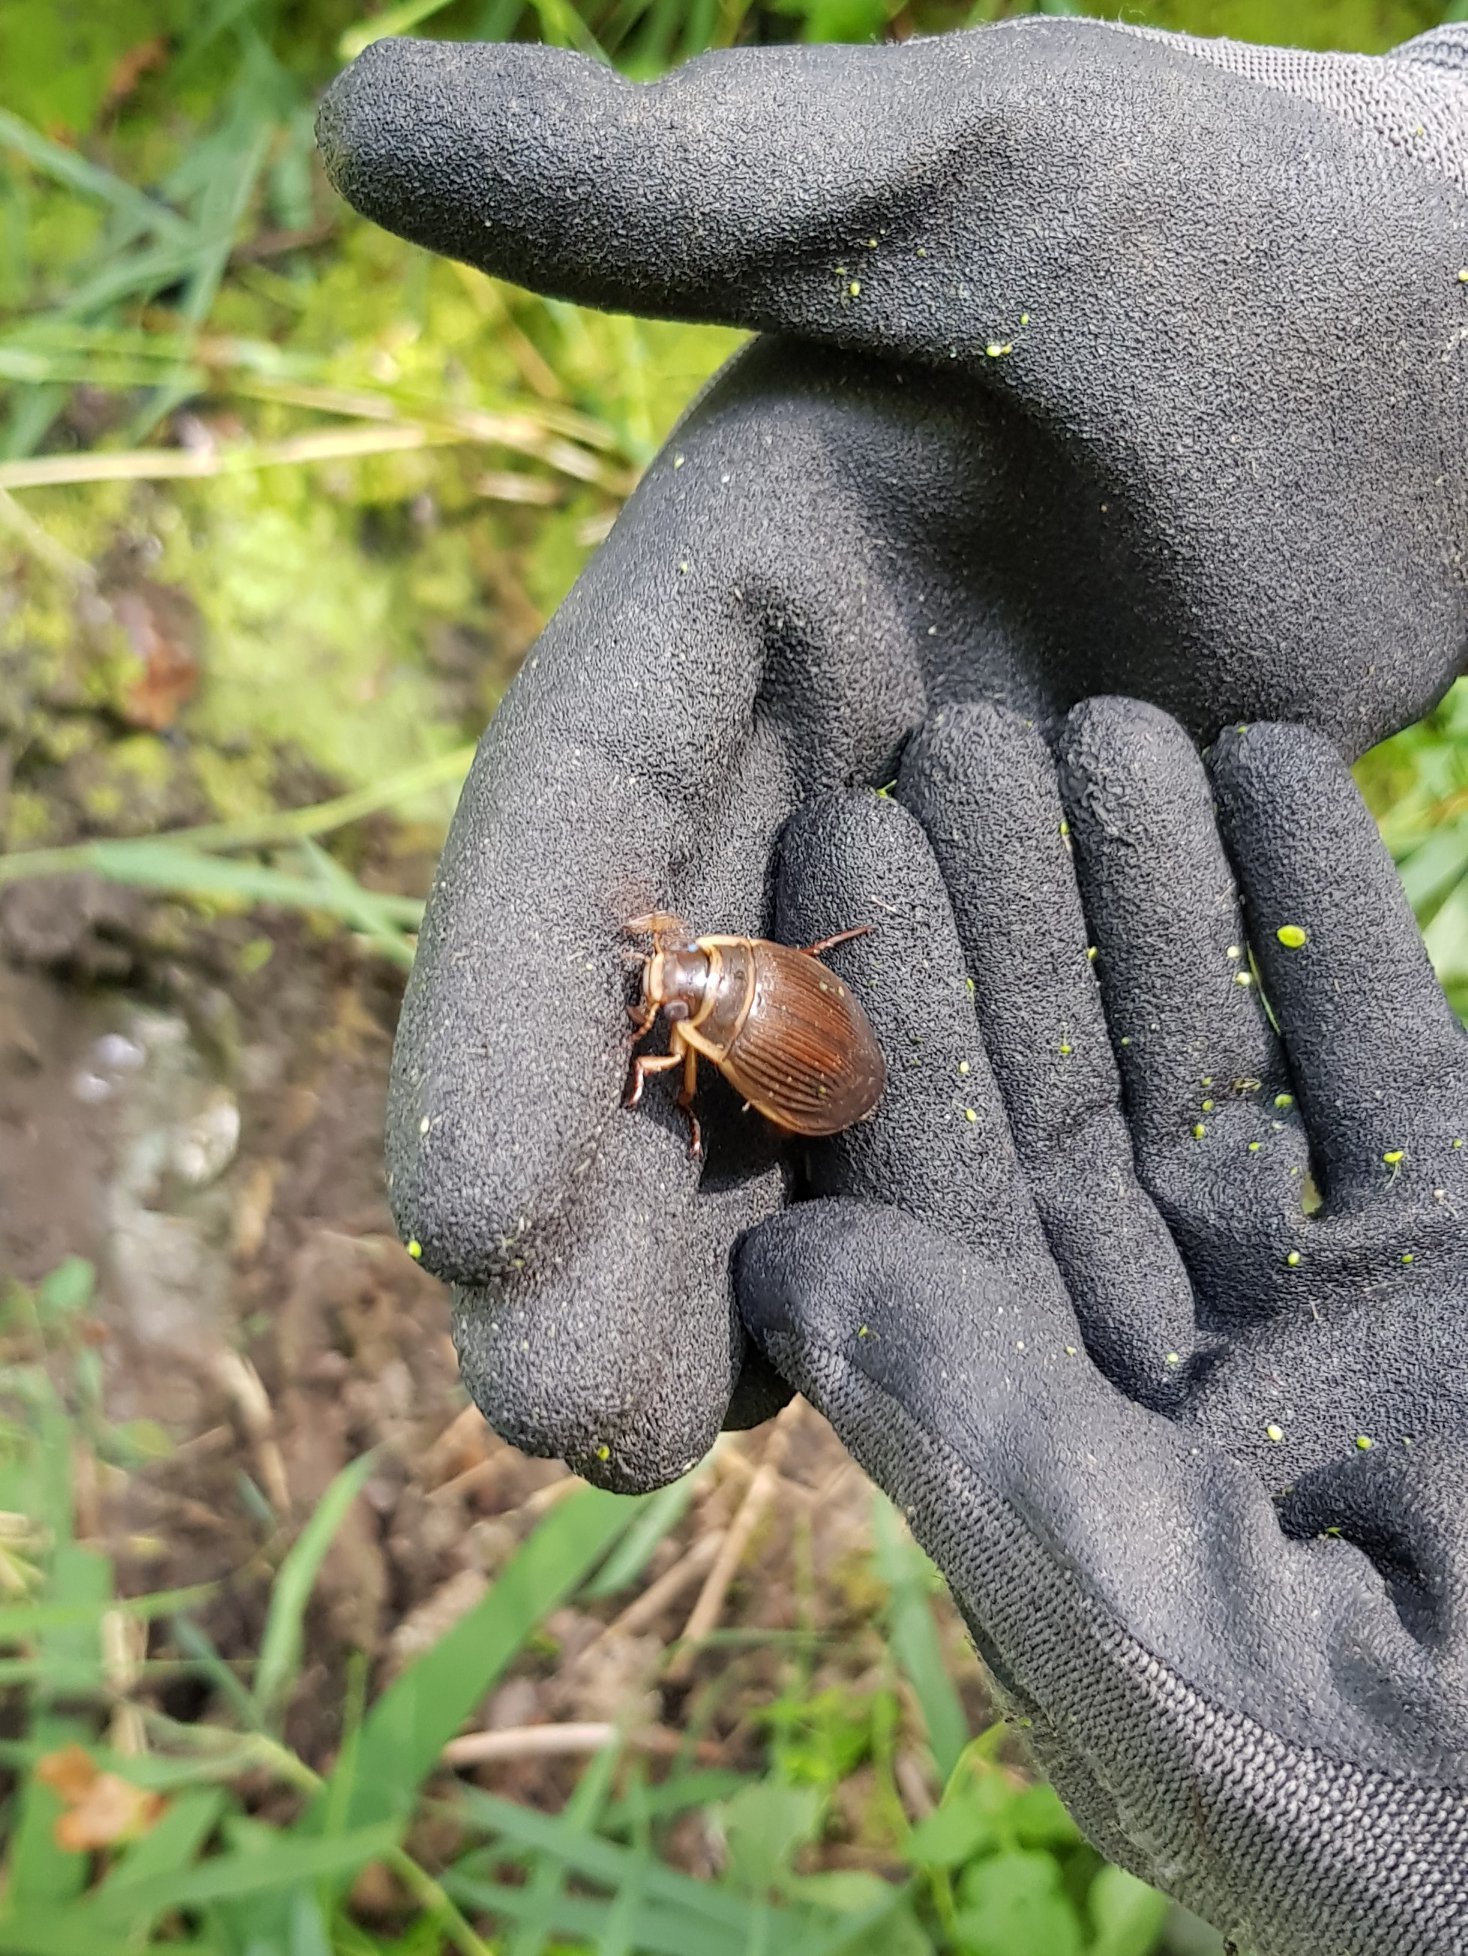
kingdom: Animalia
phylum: Arthropoda
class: Insecta
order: Coleoptera
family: Dytiscidae
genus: Dytiscus
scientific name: Dytiscus marginalis
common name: Great water beetle
